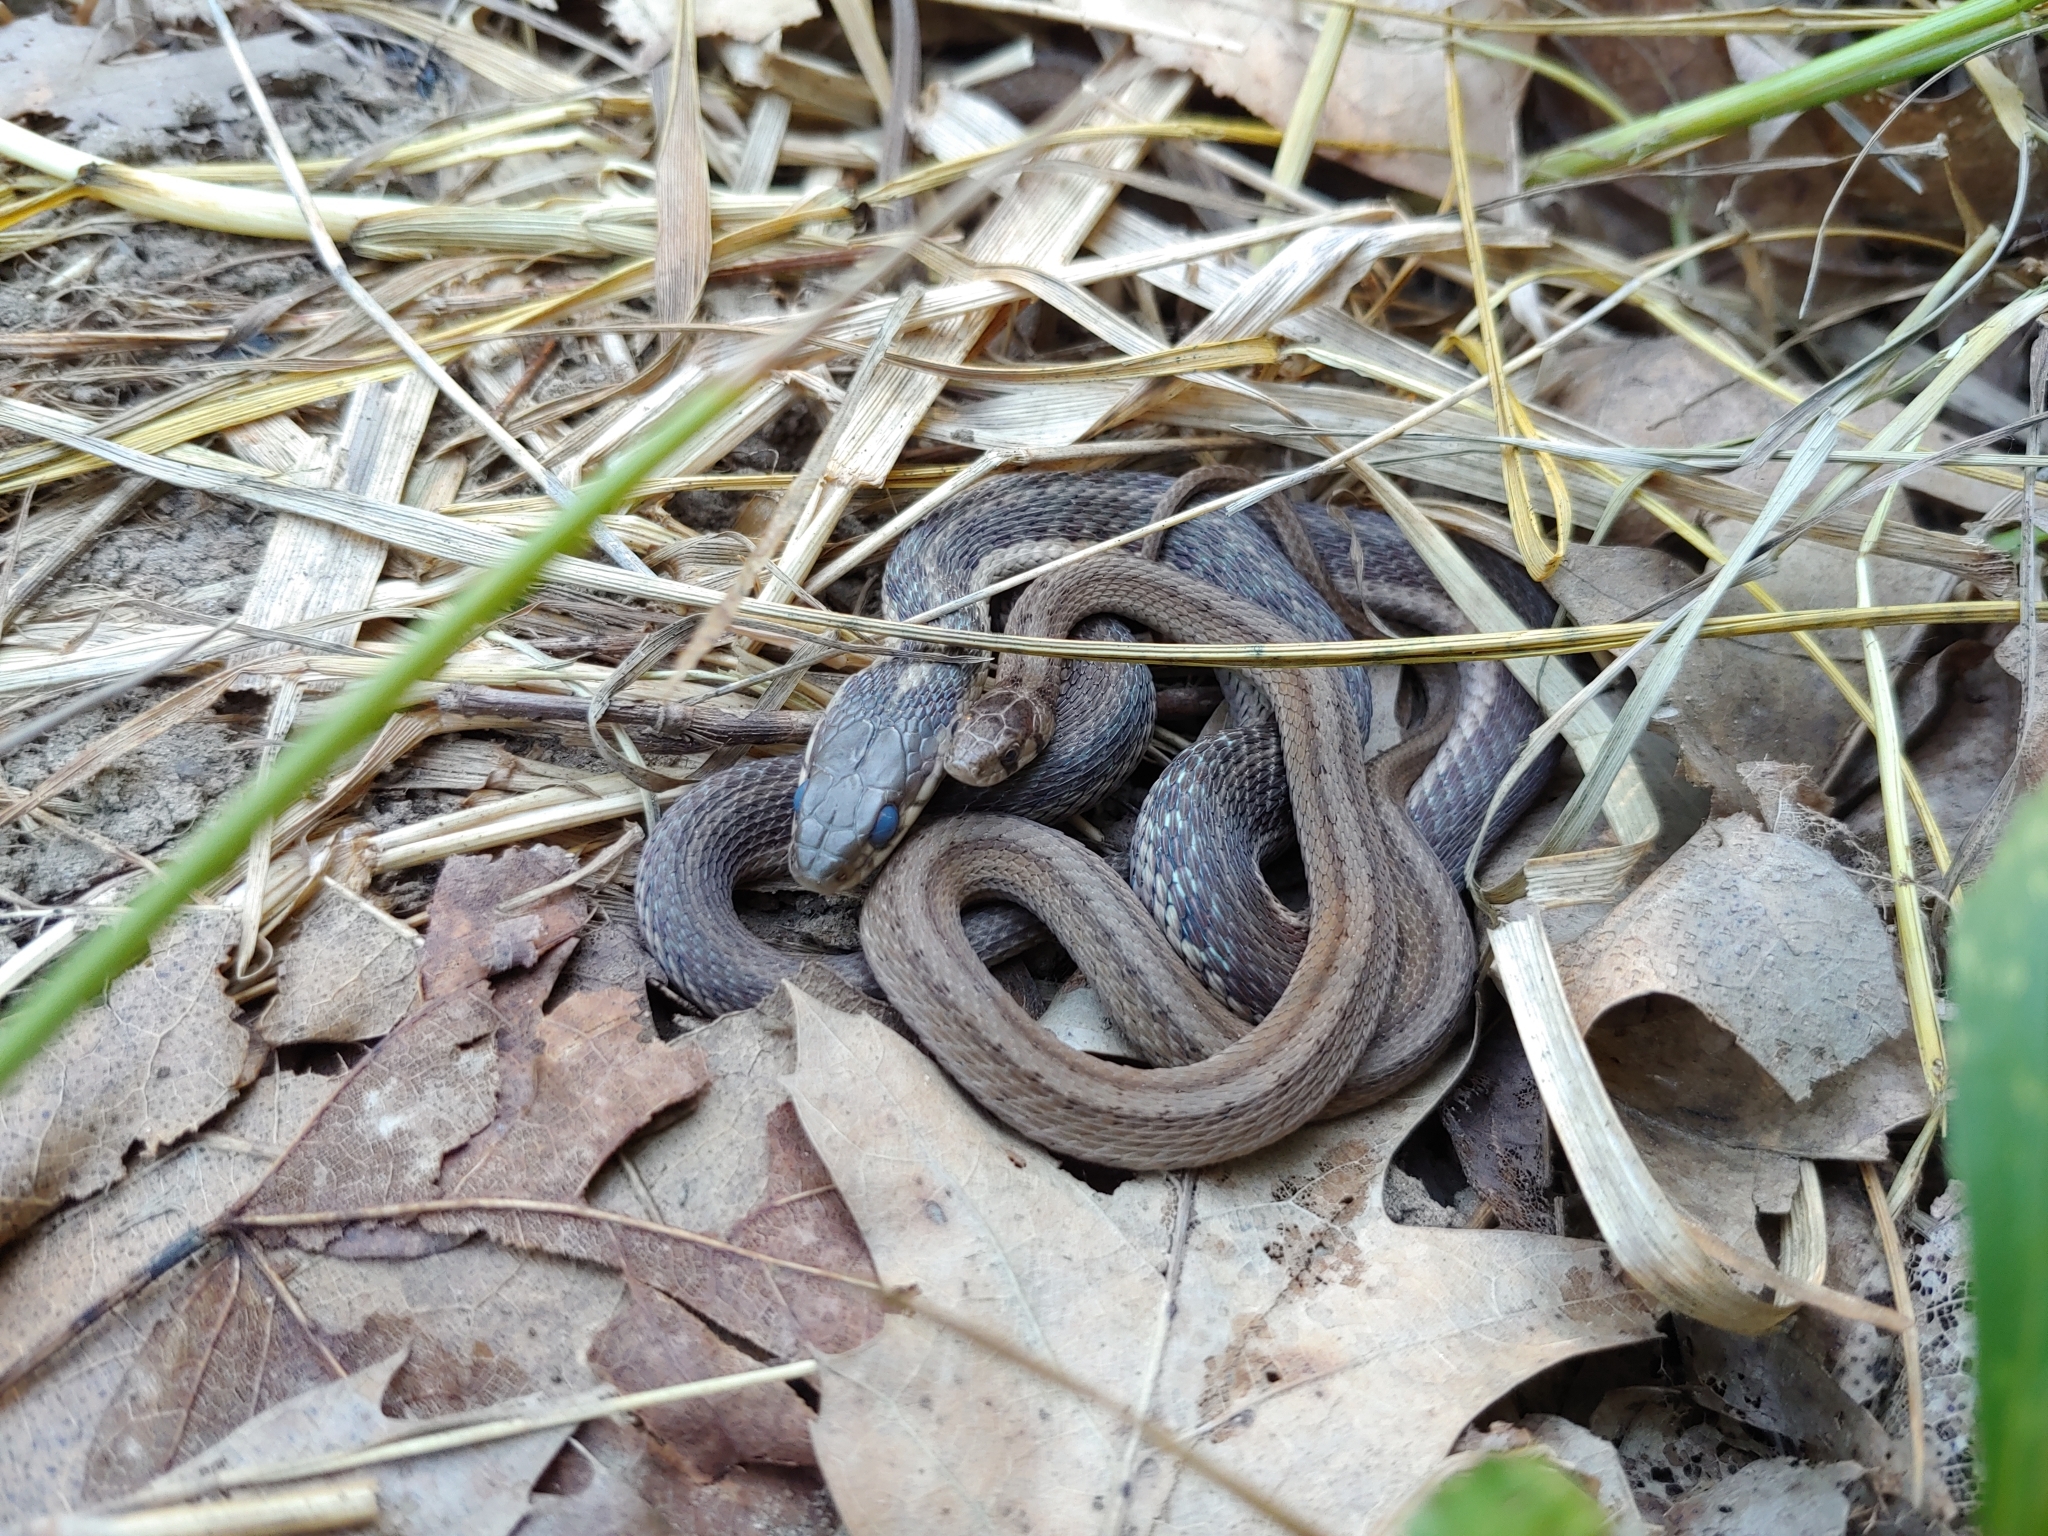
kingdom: Animalia
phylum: Chordata
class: Squamata
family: Colubridae
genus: Storeria
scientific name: Storeria dekayi
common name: (dekay’s) brown snake
